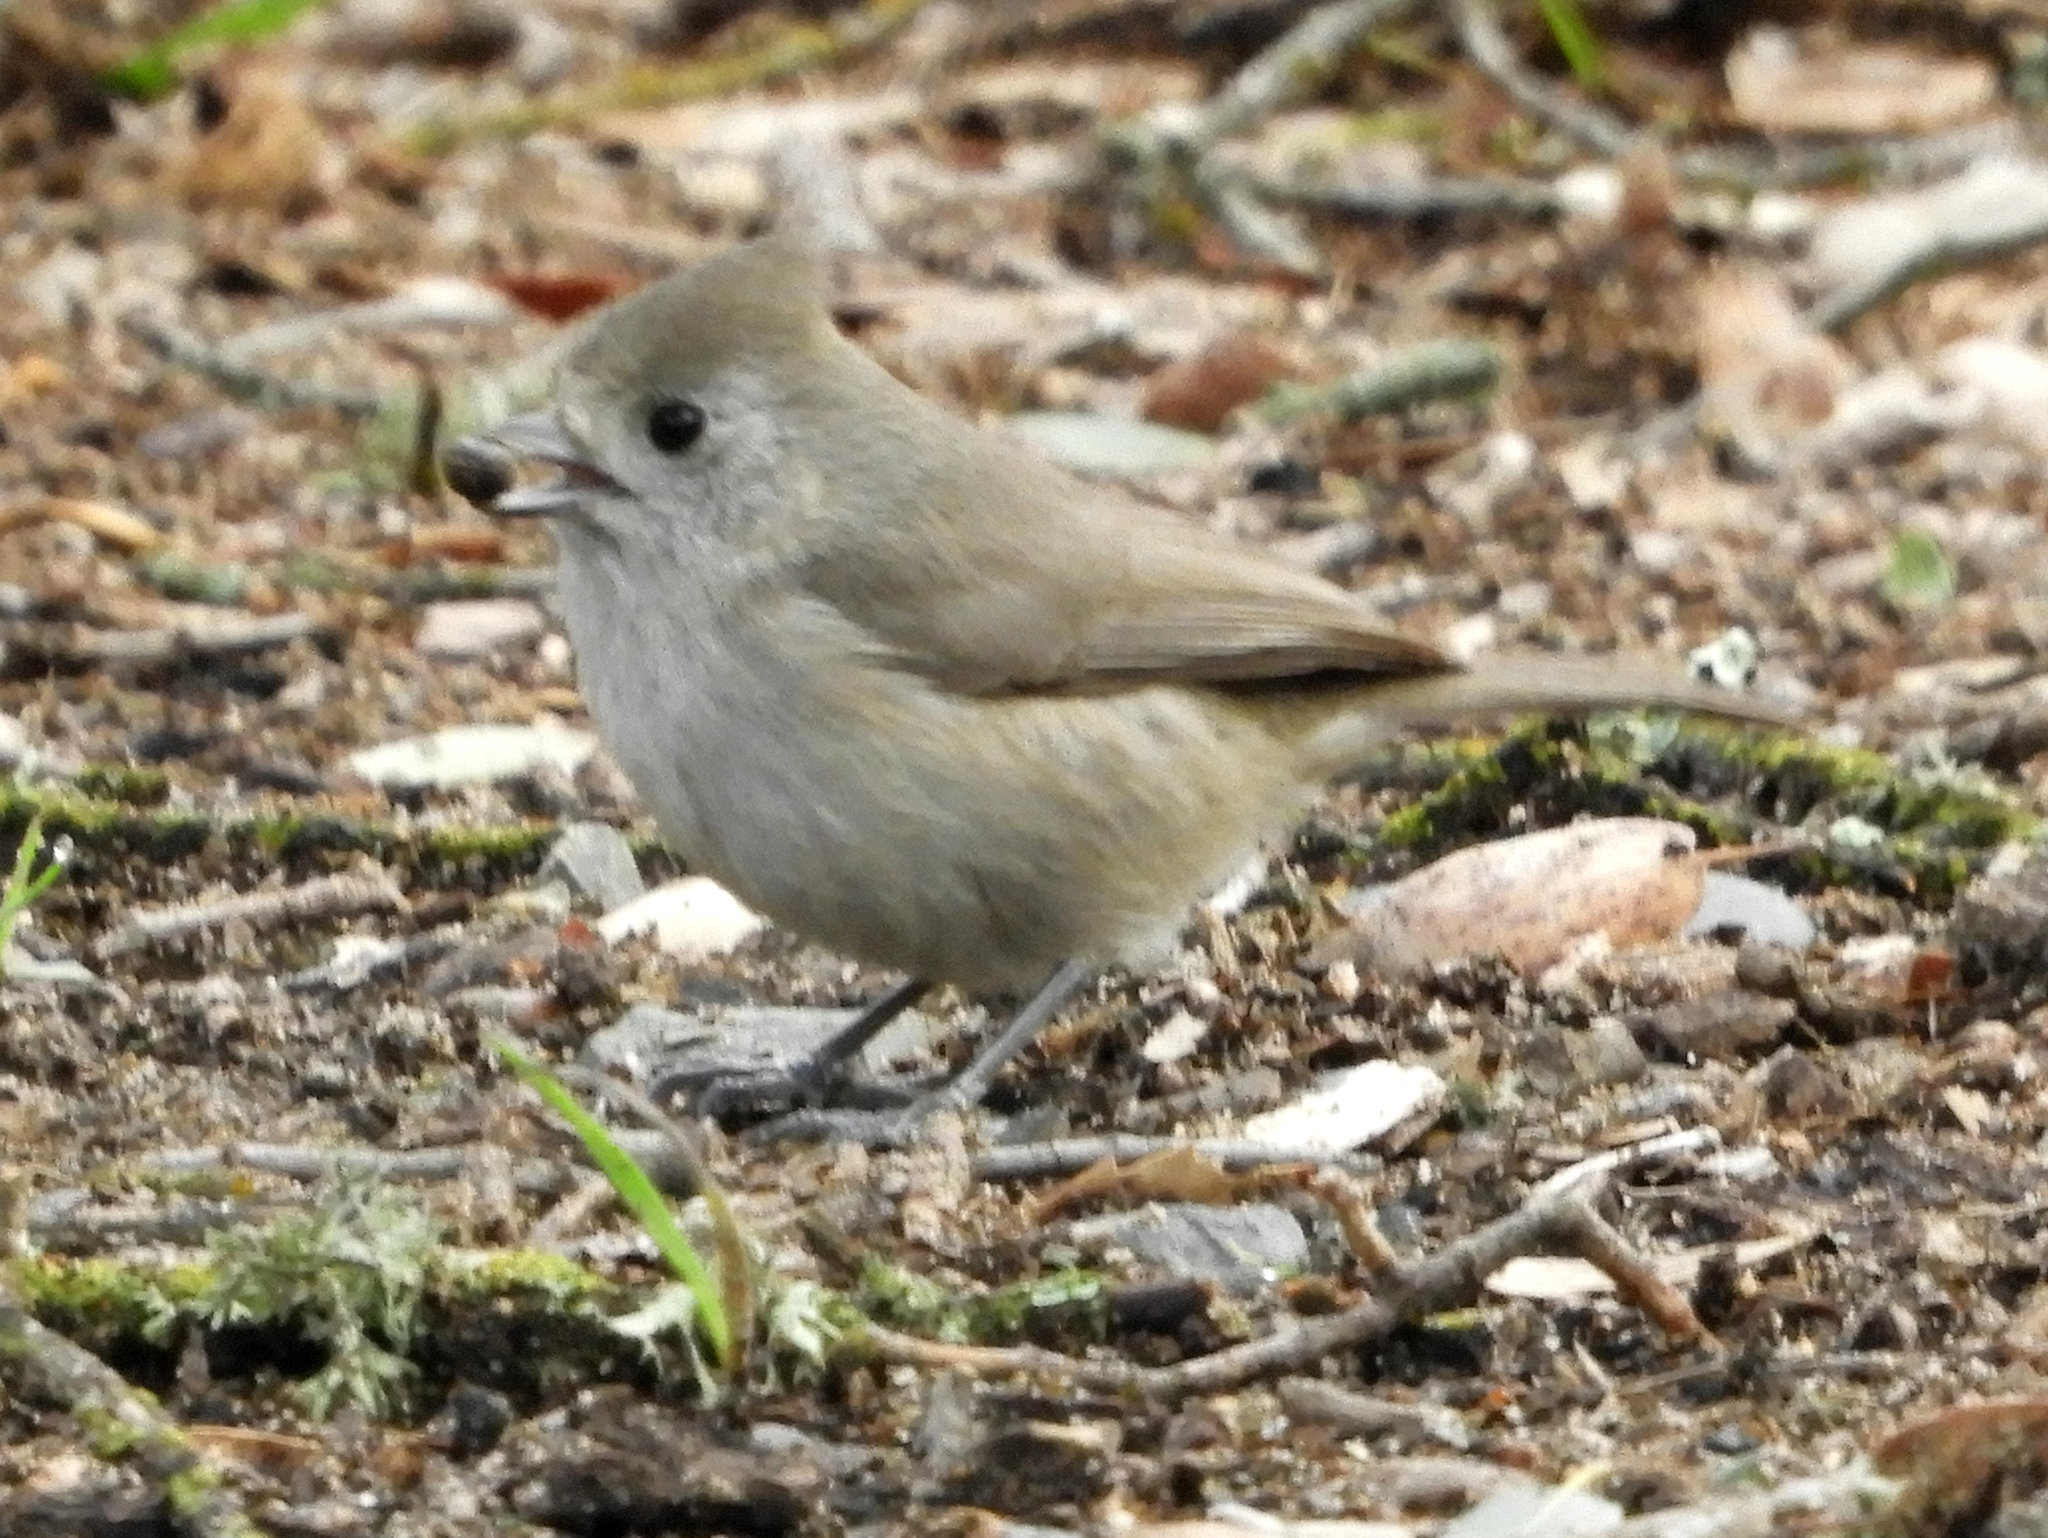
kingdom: Animalia
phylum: Chordata
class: Aves
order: Passeriformes
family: Paridae
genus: Baeolophus
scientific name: Baeolophus inornatus
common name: Oak titmouse
